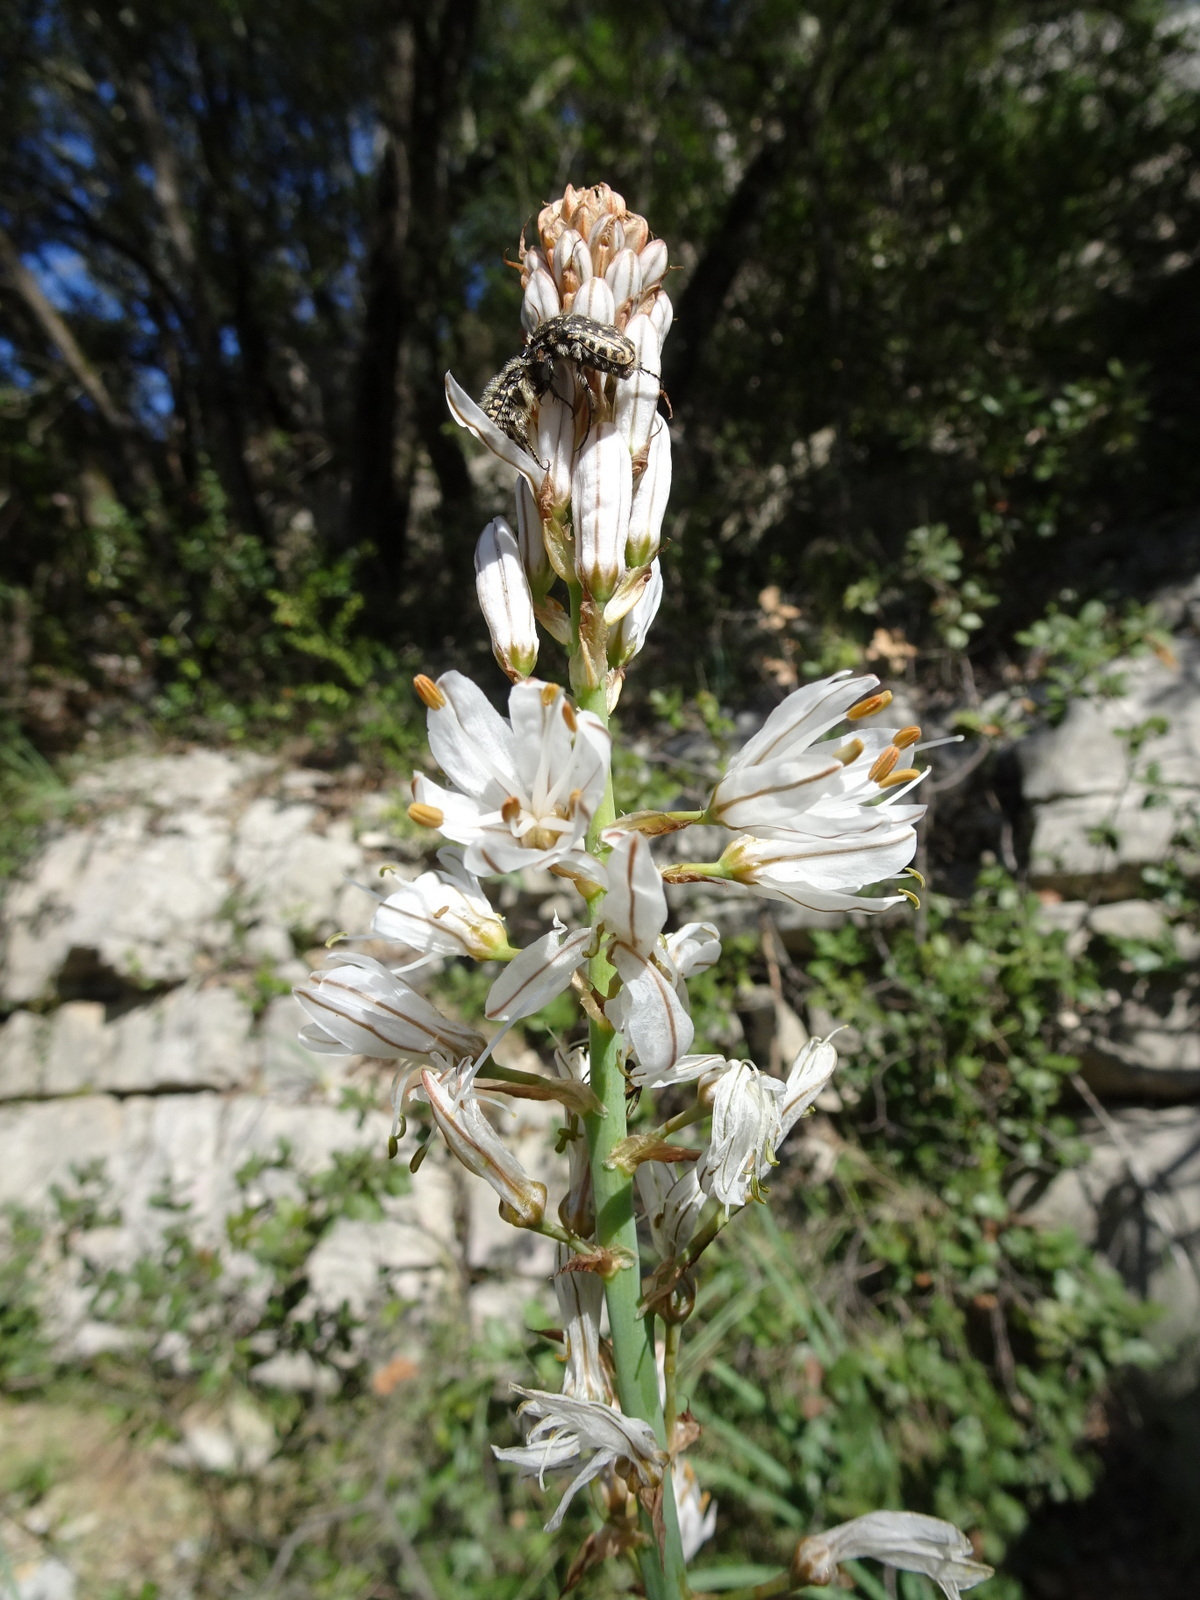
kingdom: Plantae
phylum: Tracheophyta
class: Liliopsida
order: Asparagales
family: Asphodelaceae
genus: Asphodelus
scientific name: Asphodelus cerasifer
